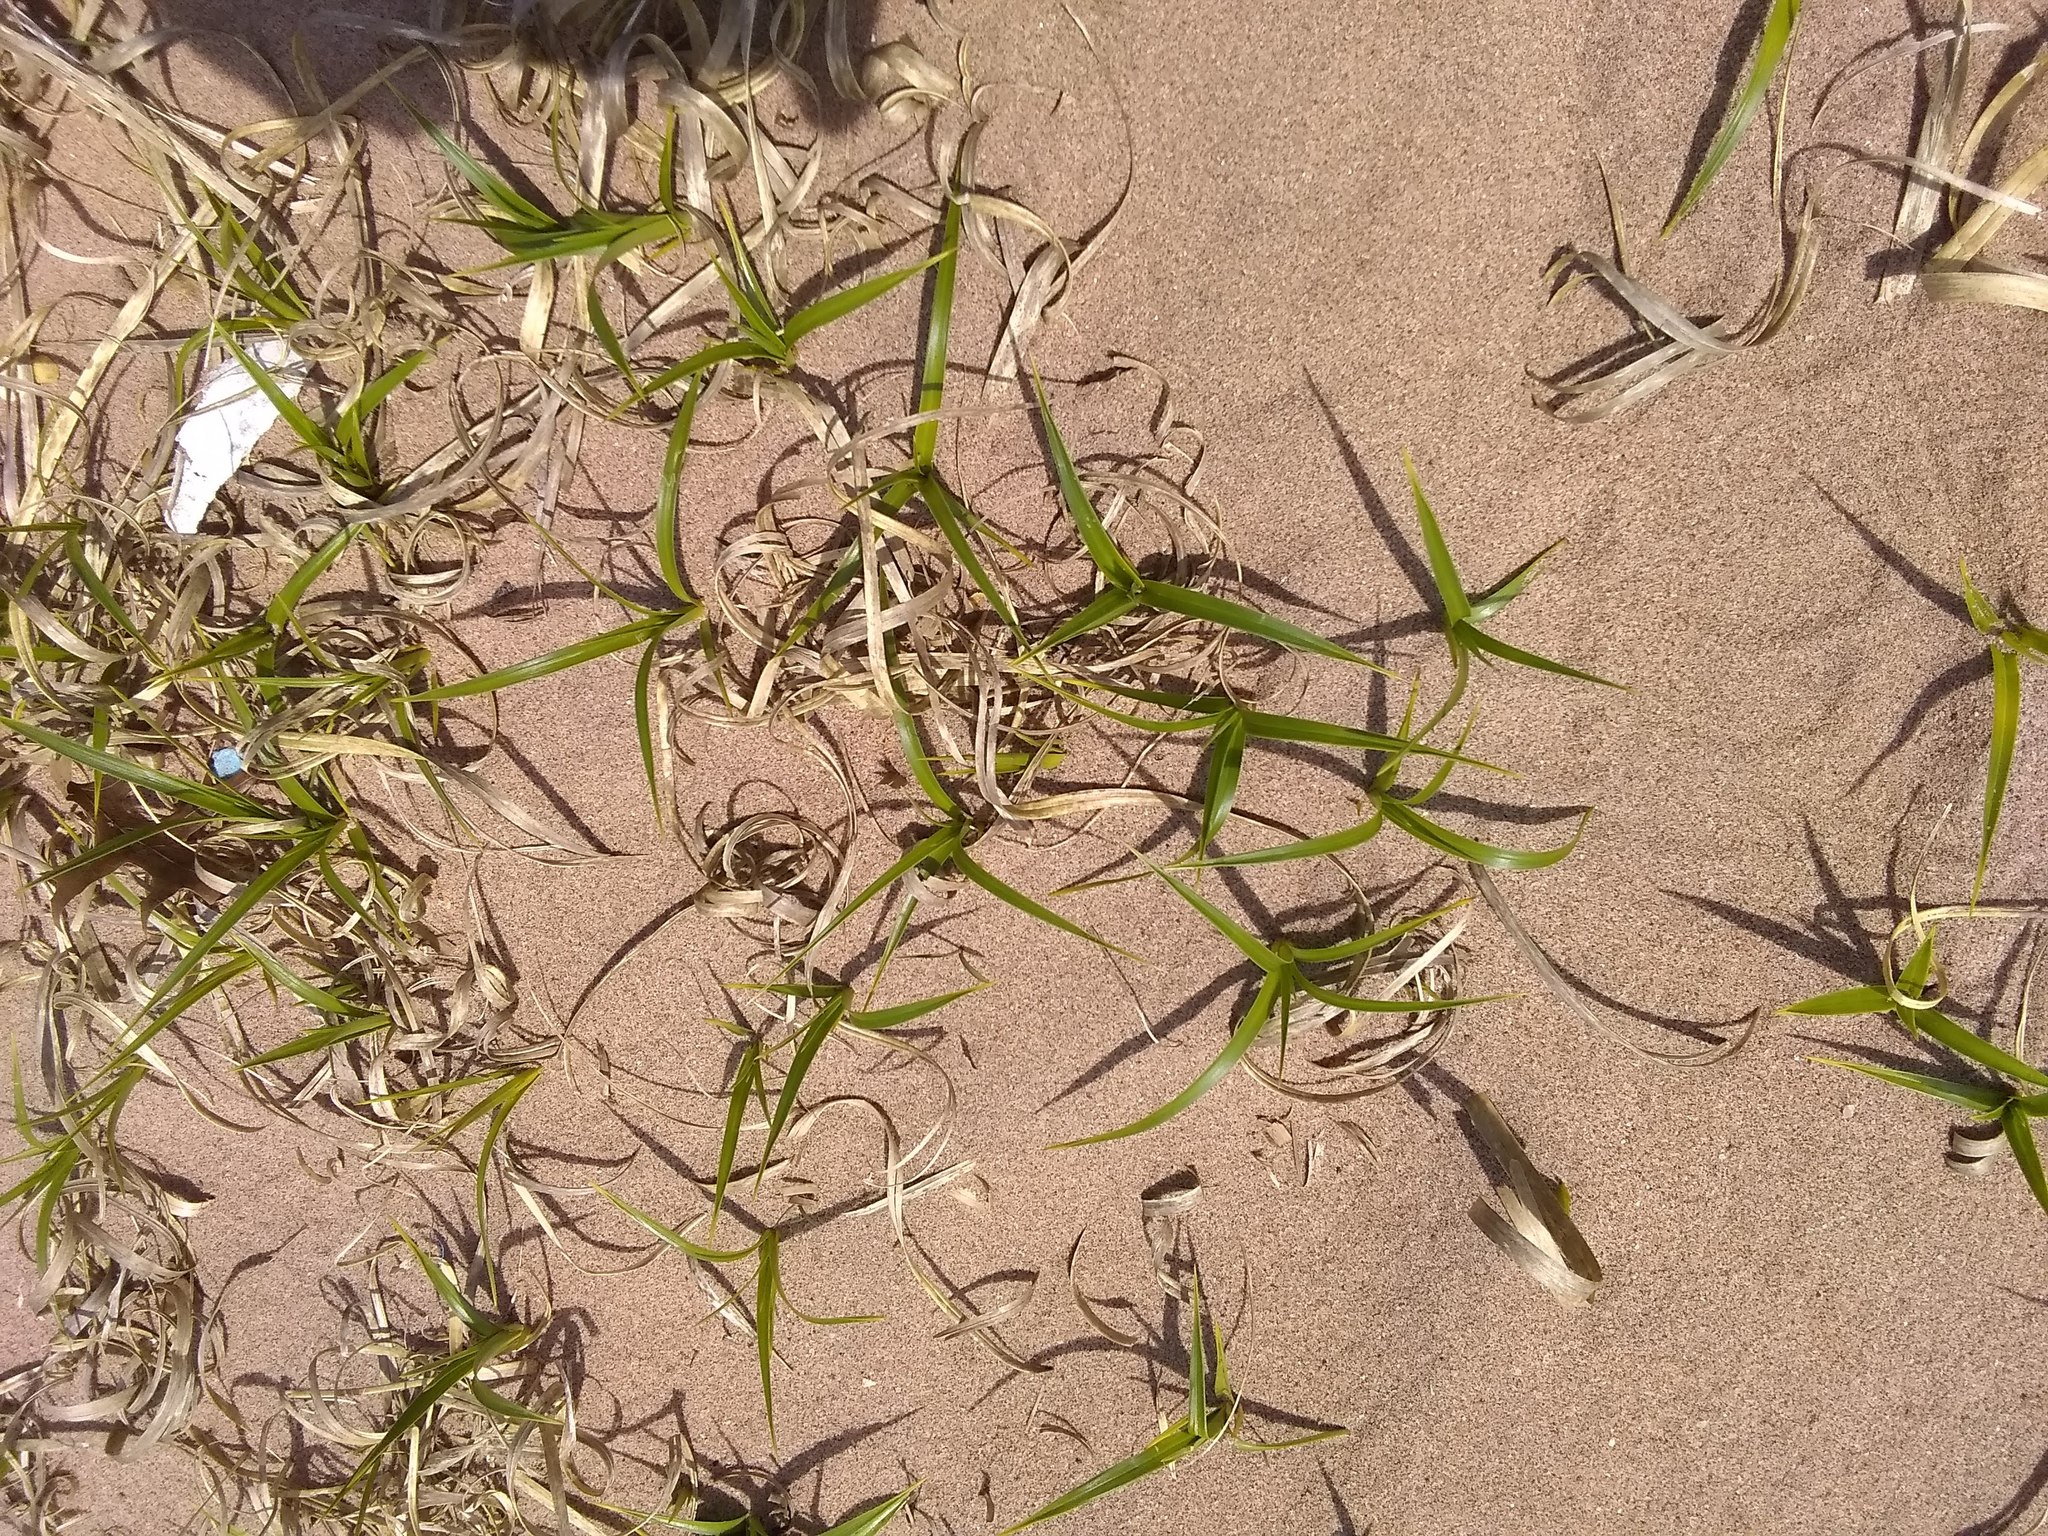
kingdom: Plantae
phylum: Tracheophyta
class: Liliopsida
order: Poales
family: Cyperaceae
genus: Carex
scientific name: Carex kobomugi
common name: Japanese sedge
